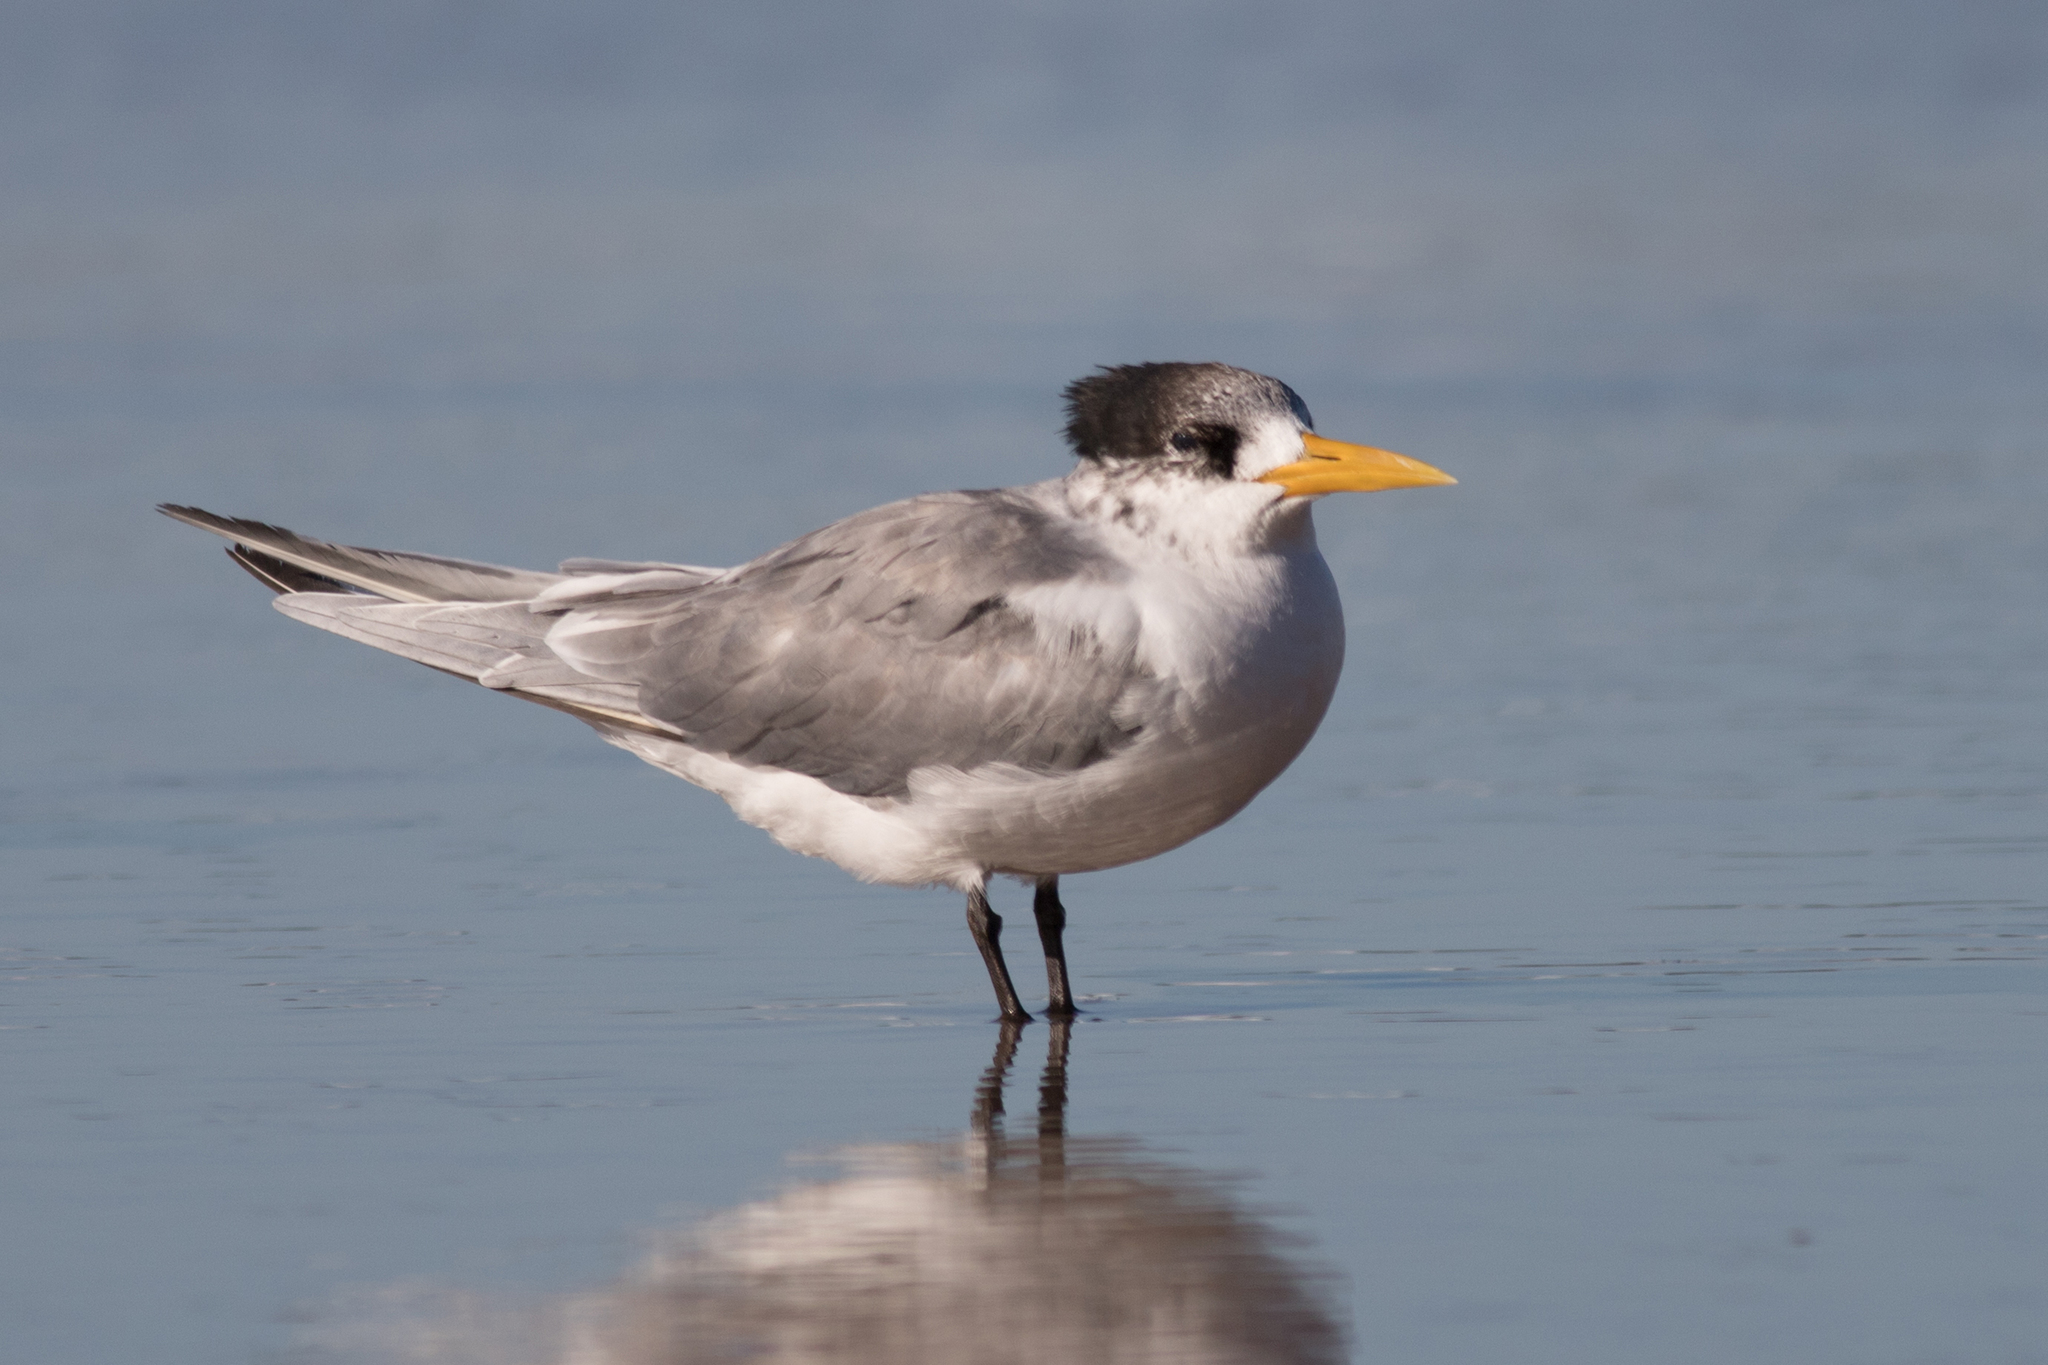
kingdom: Animalia
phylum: Chordata
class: Aves
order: Charadriiformes
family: Laridae
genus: Thalasseus
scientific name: Thalasseus bergii
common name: Greater crested tern
